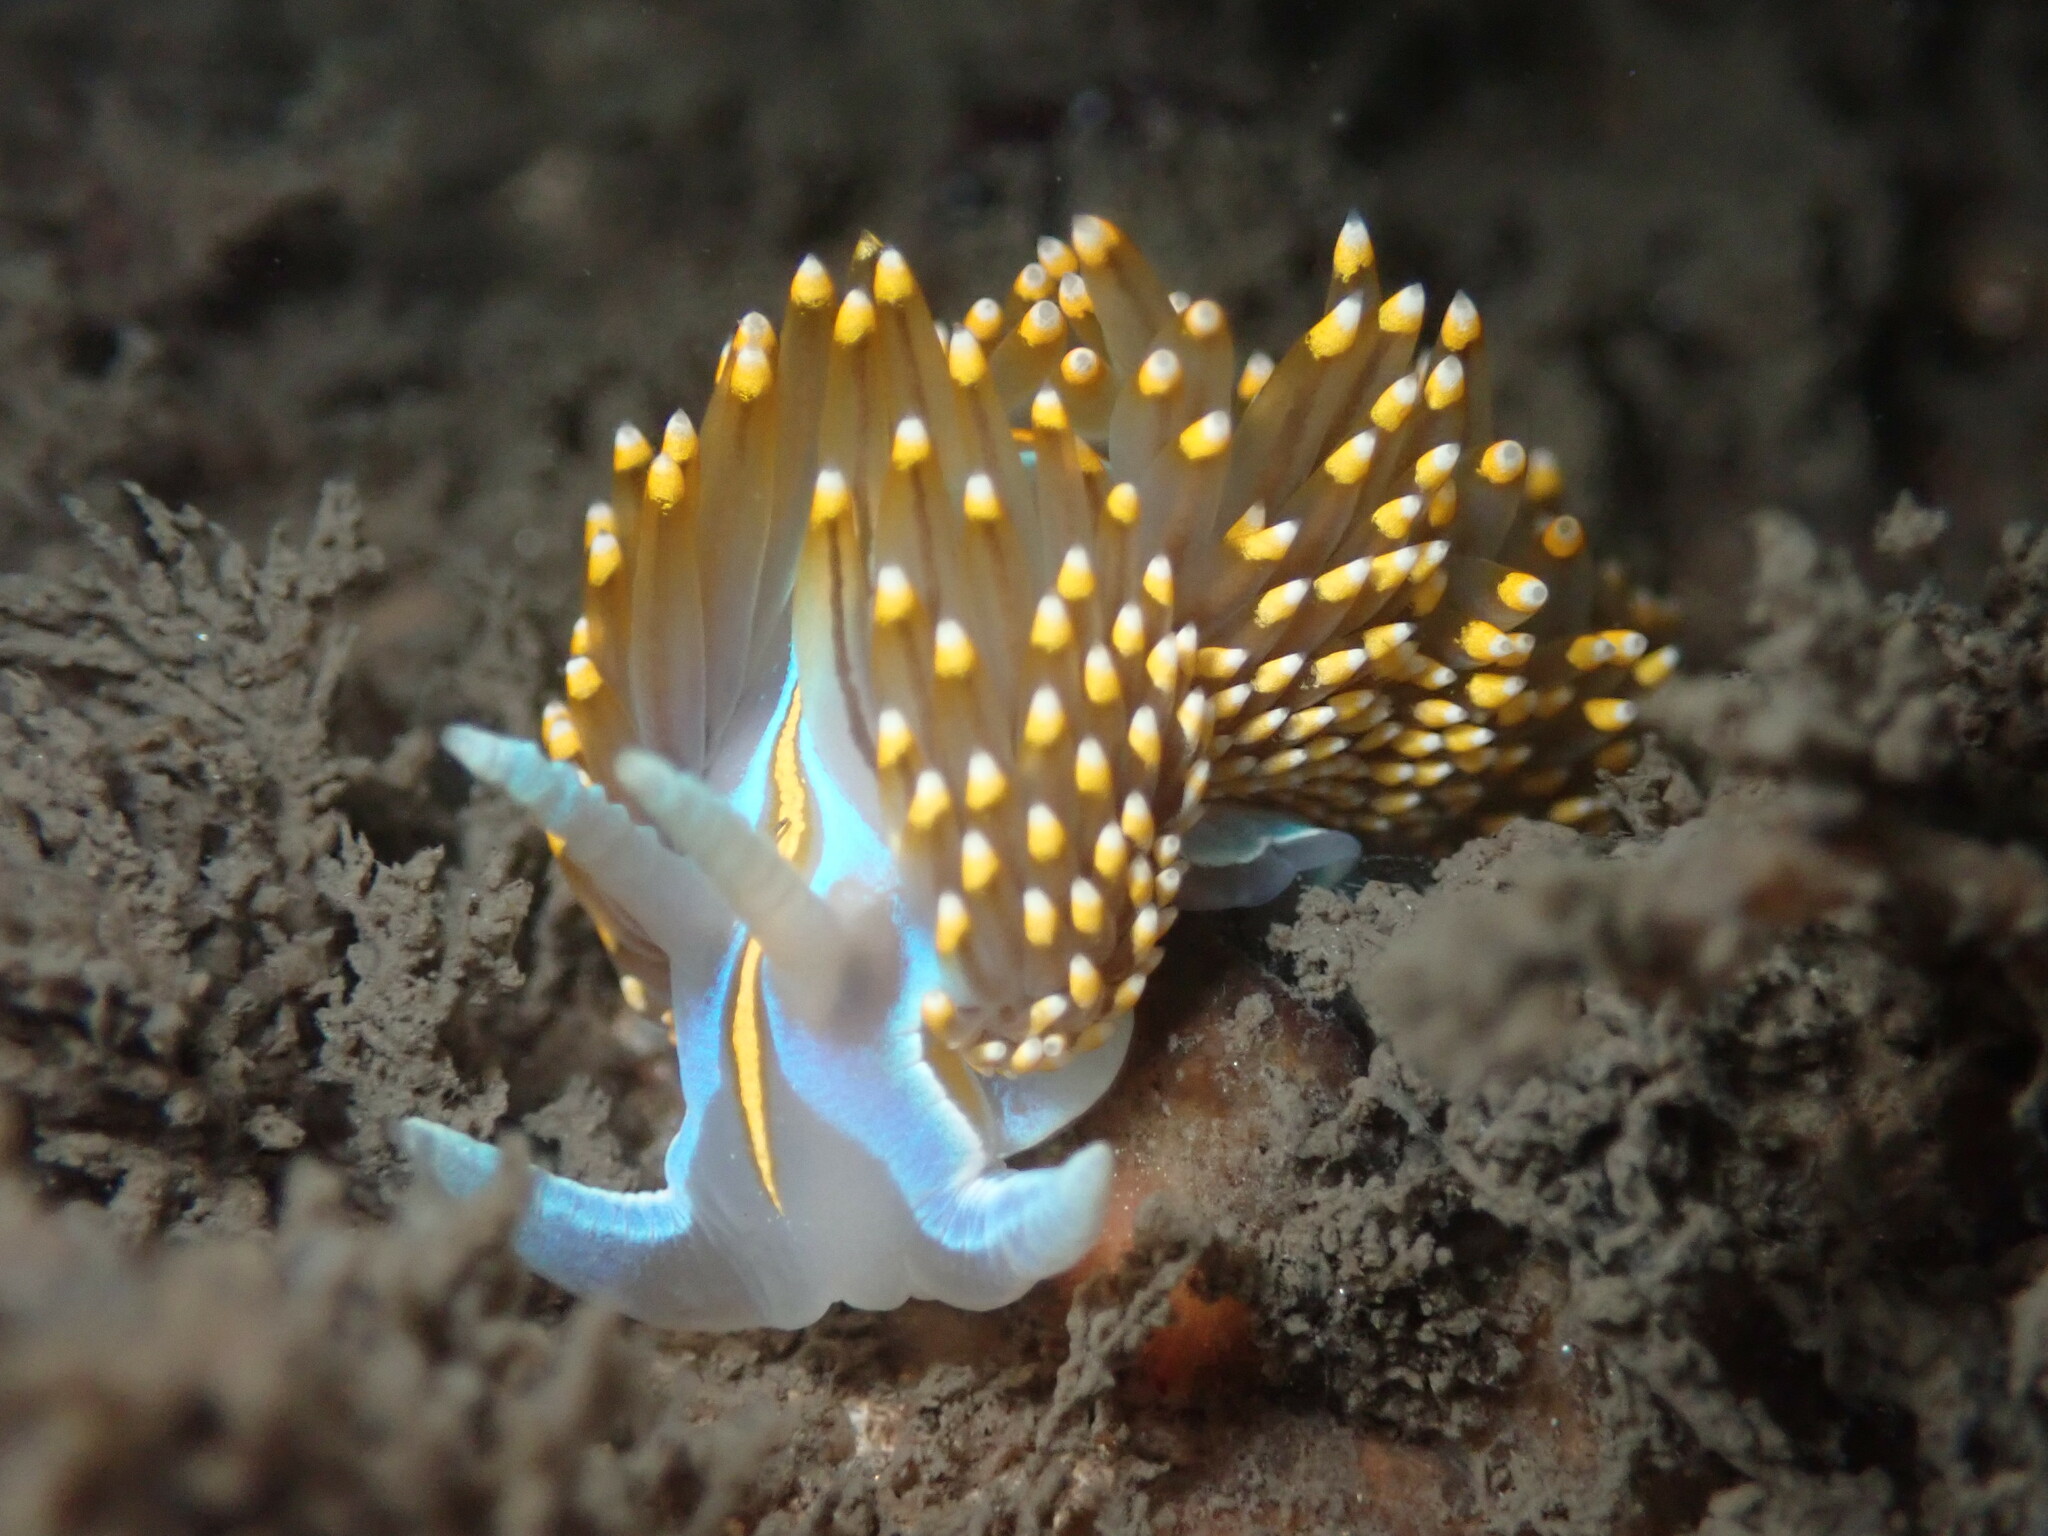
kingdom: Animalia
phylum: Mollusca
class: Gastropoda
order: Nudibranchia
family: Myrrhinidae
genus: Hermissenda
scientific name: Hermissenda opalescens
